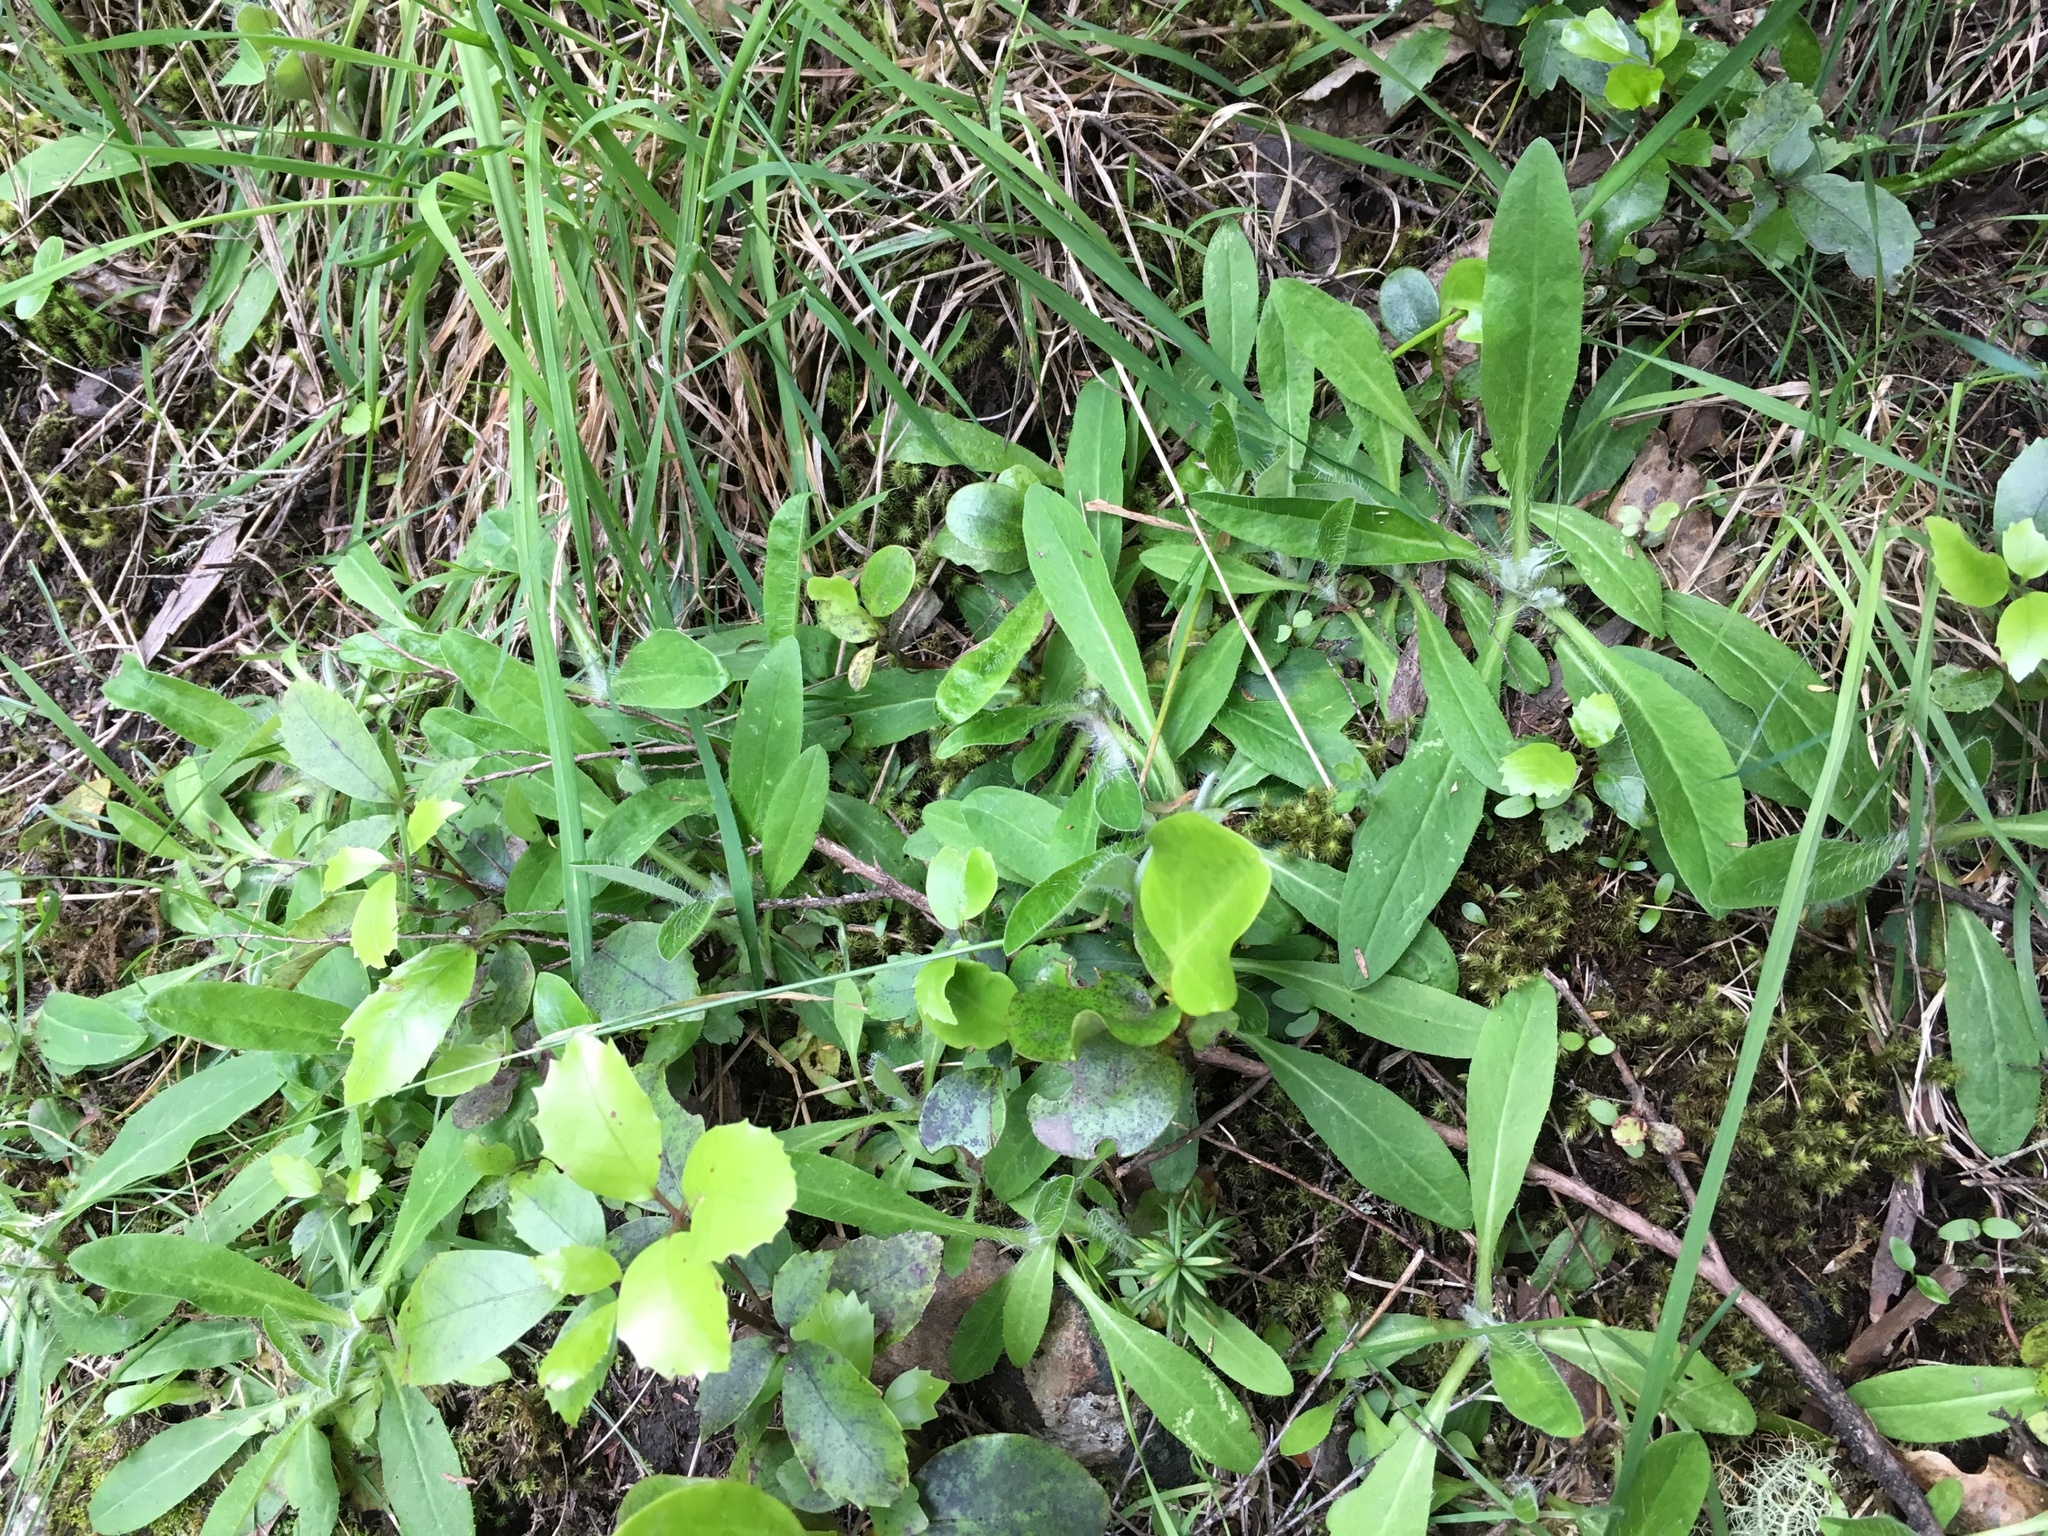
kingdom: Plantae
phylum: Tracheophyta
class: Magnoliopsida
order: Asterales
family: Asteraceae
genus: Pilosella
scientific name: Pilosella officinarum
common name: Mouse-ear hawkweed
